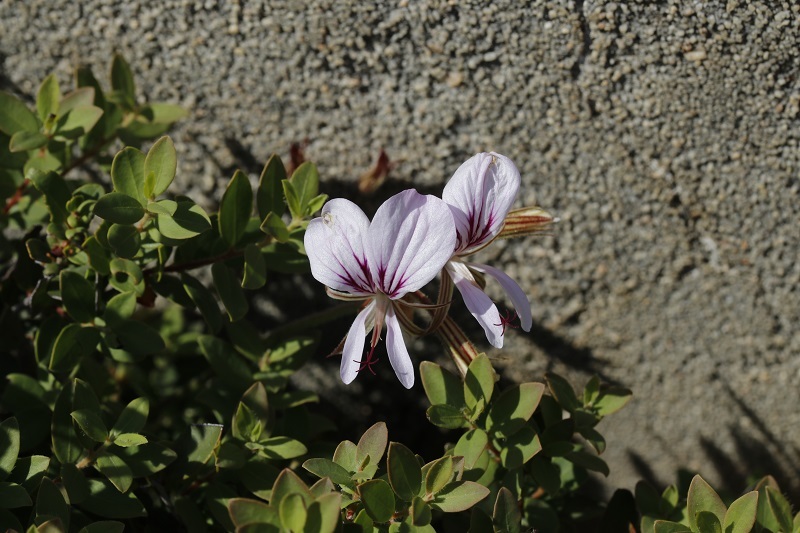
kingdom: Plantae
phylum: Tracheophyta
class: Magnoliopsida
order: Geraniales
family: Geraniaceae
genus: Pelargonium
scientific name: Pelargonium longicaule
